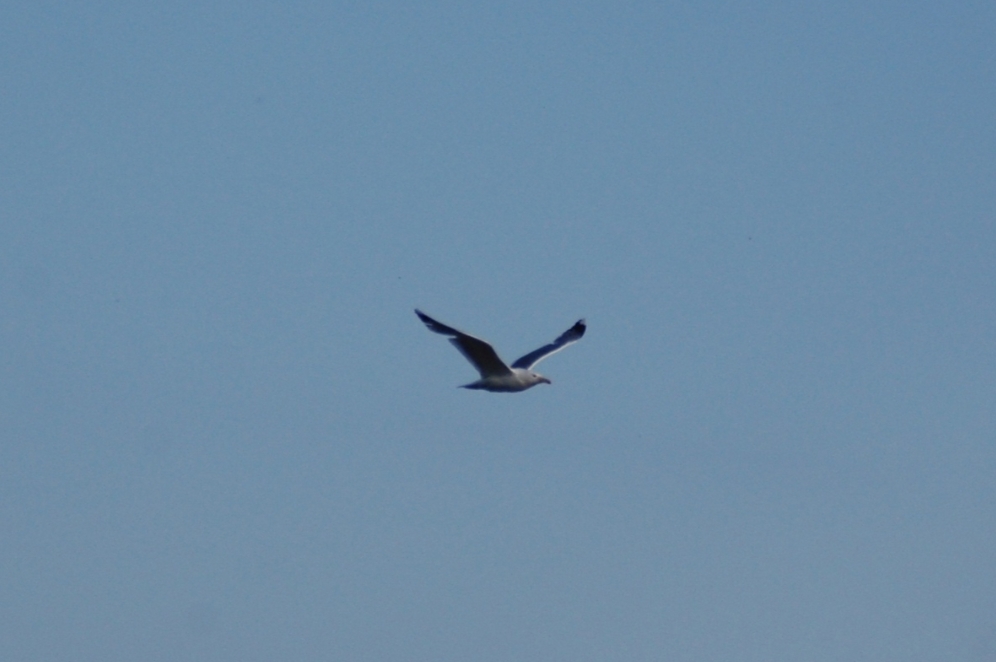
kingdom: Animalia
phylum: Chordata
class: Aves
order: Charadriiformes
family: Laridae
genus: Larus
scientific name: Larus marinus
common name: Great black-backed gull
